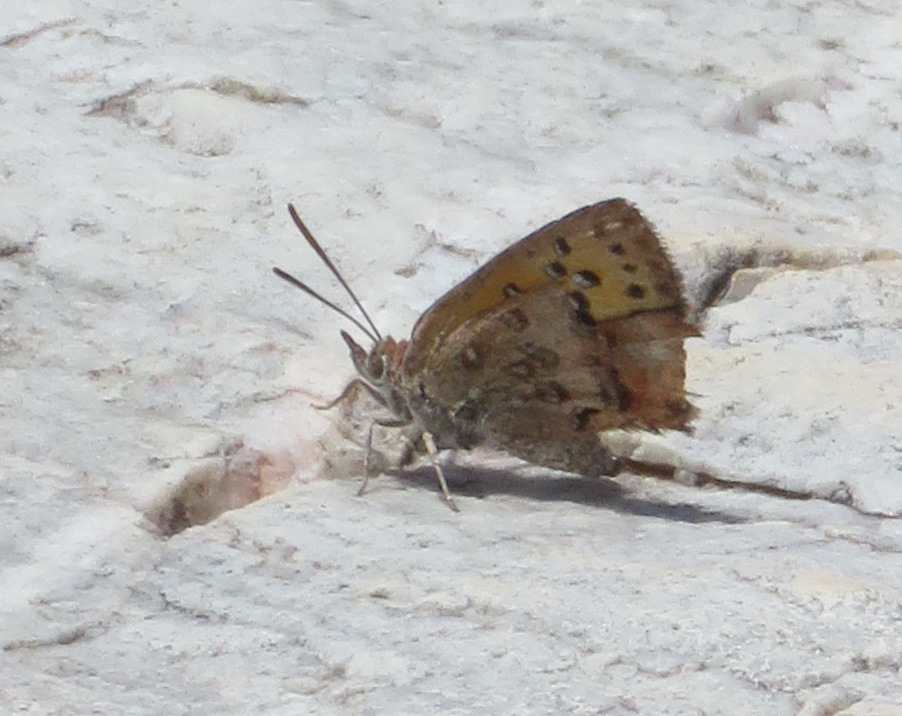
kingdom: Animalia
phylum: Arthropoda
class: Insecta
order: Lepidoptera
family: Lycaenidae
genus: Aloeides
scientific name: Aloeides pierus
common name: Dull copper
